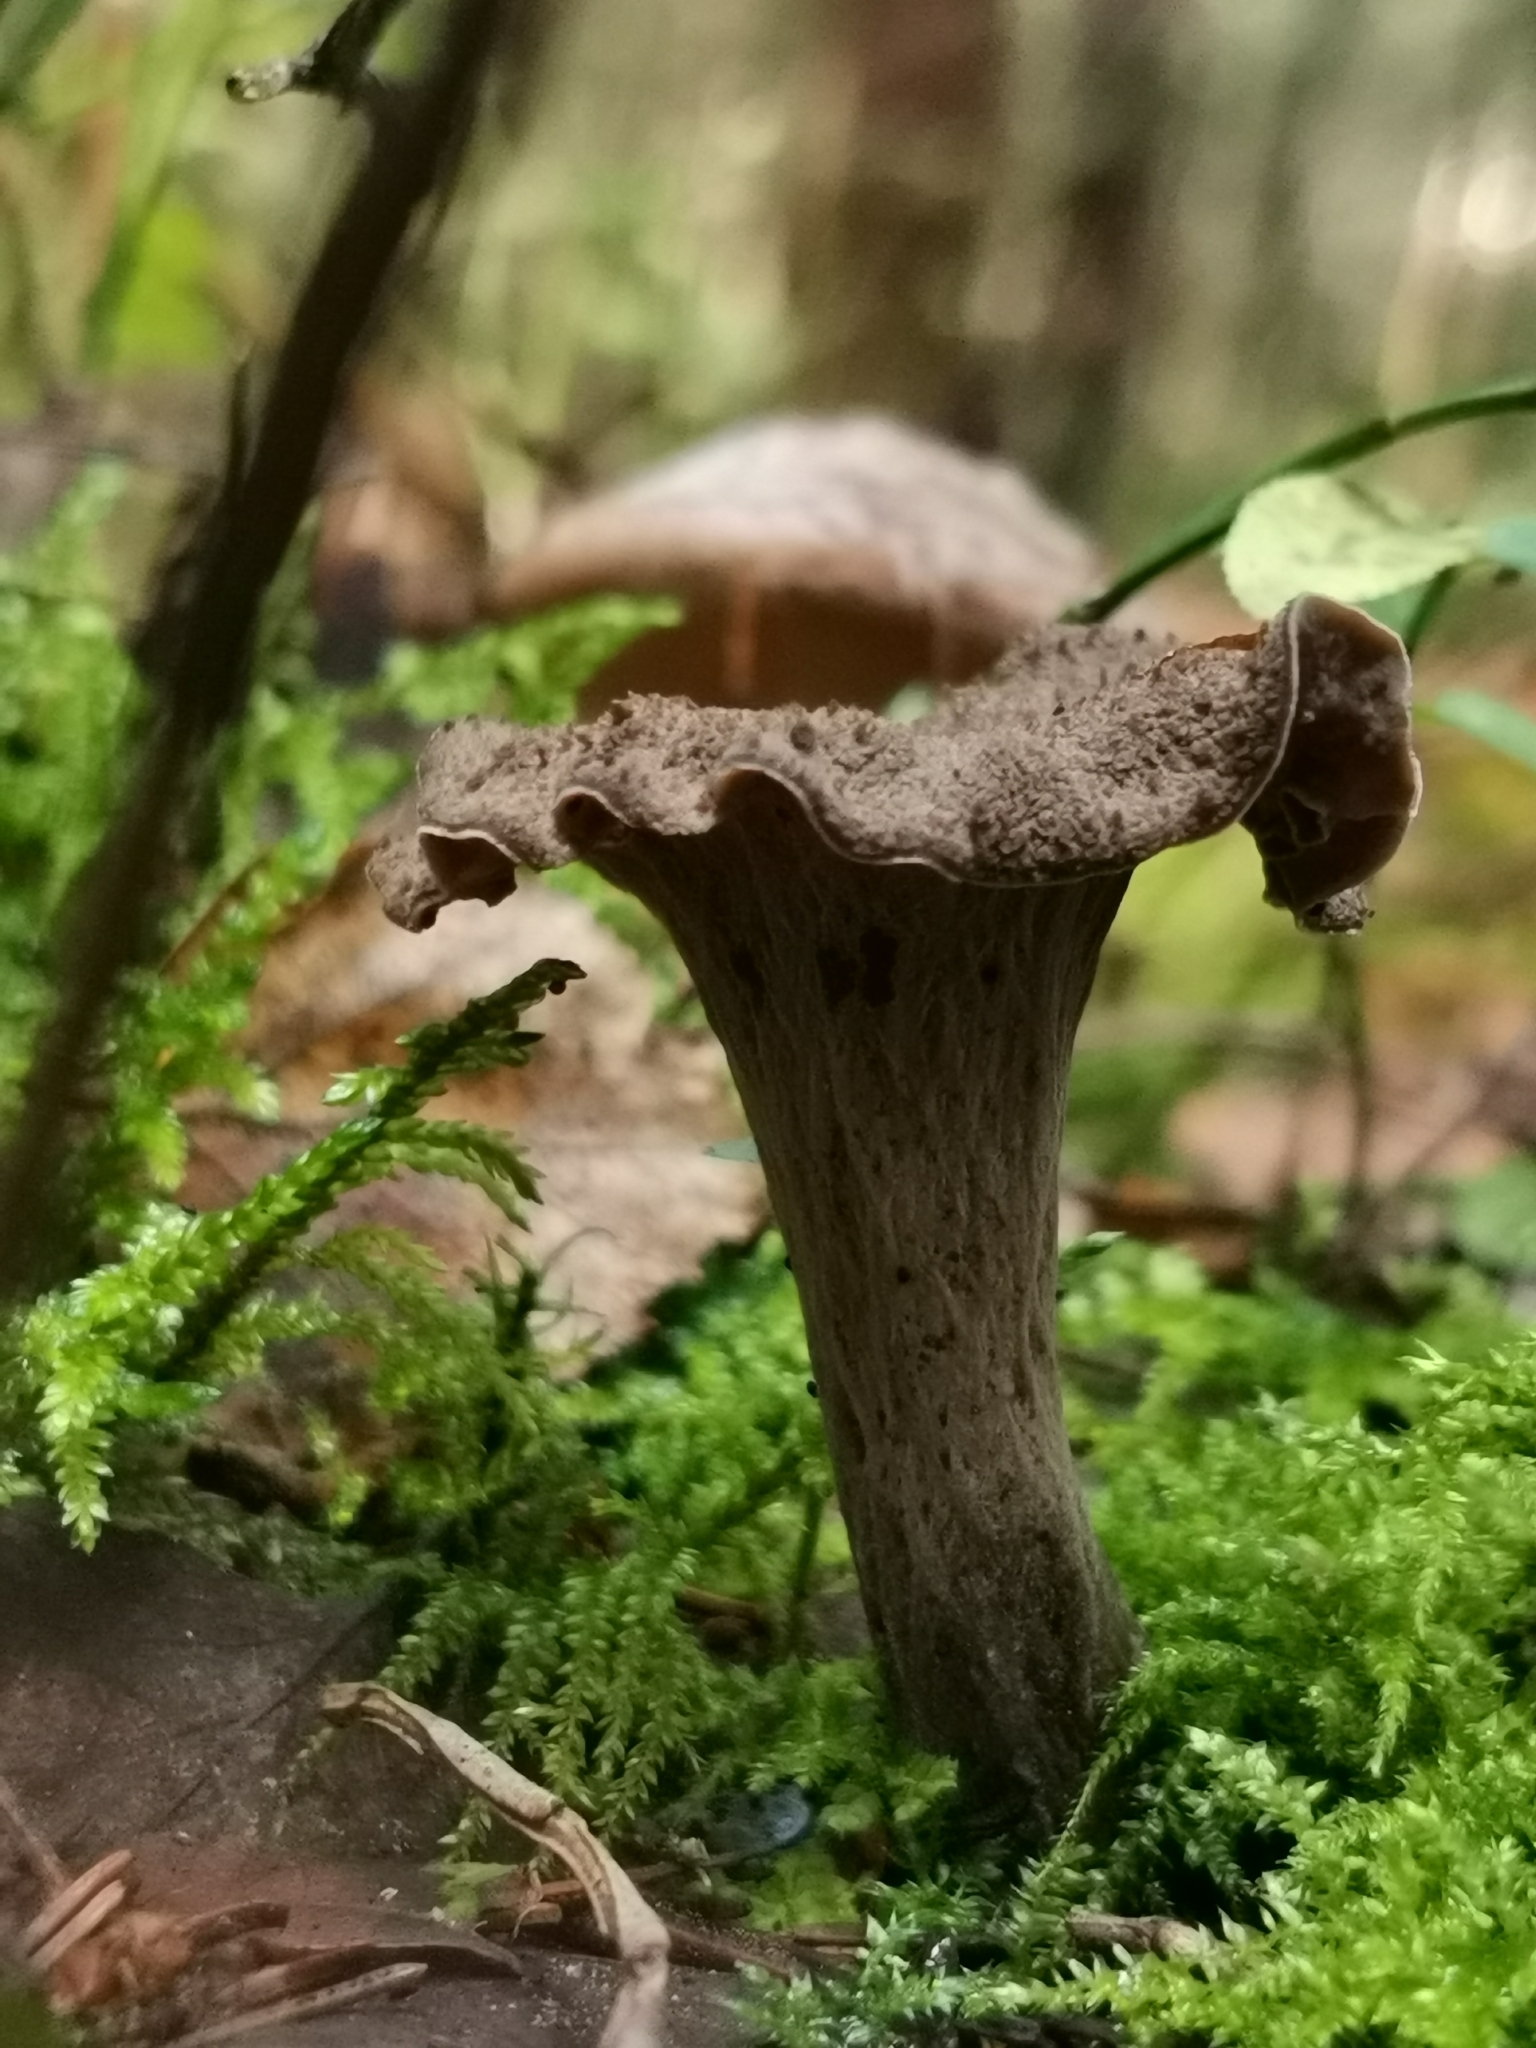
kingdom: Fungi
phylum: Basidiomycota
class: Agaricomycetes
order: Cantharellales
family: Hydnaceae
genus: Craterellus
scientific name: Craterellus cornucopioides
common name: Horn of plenty
